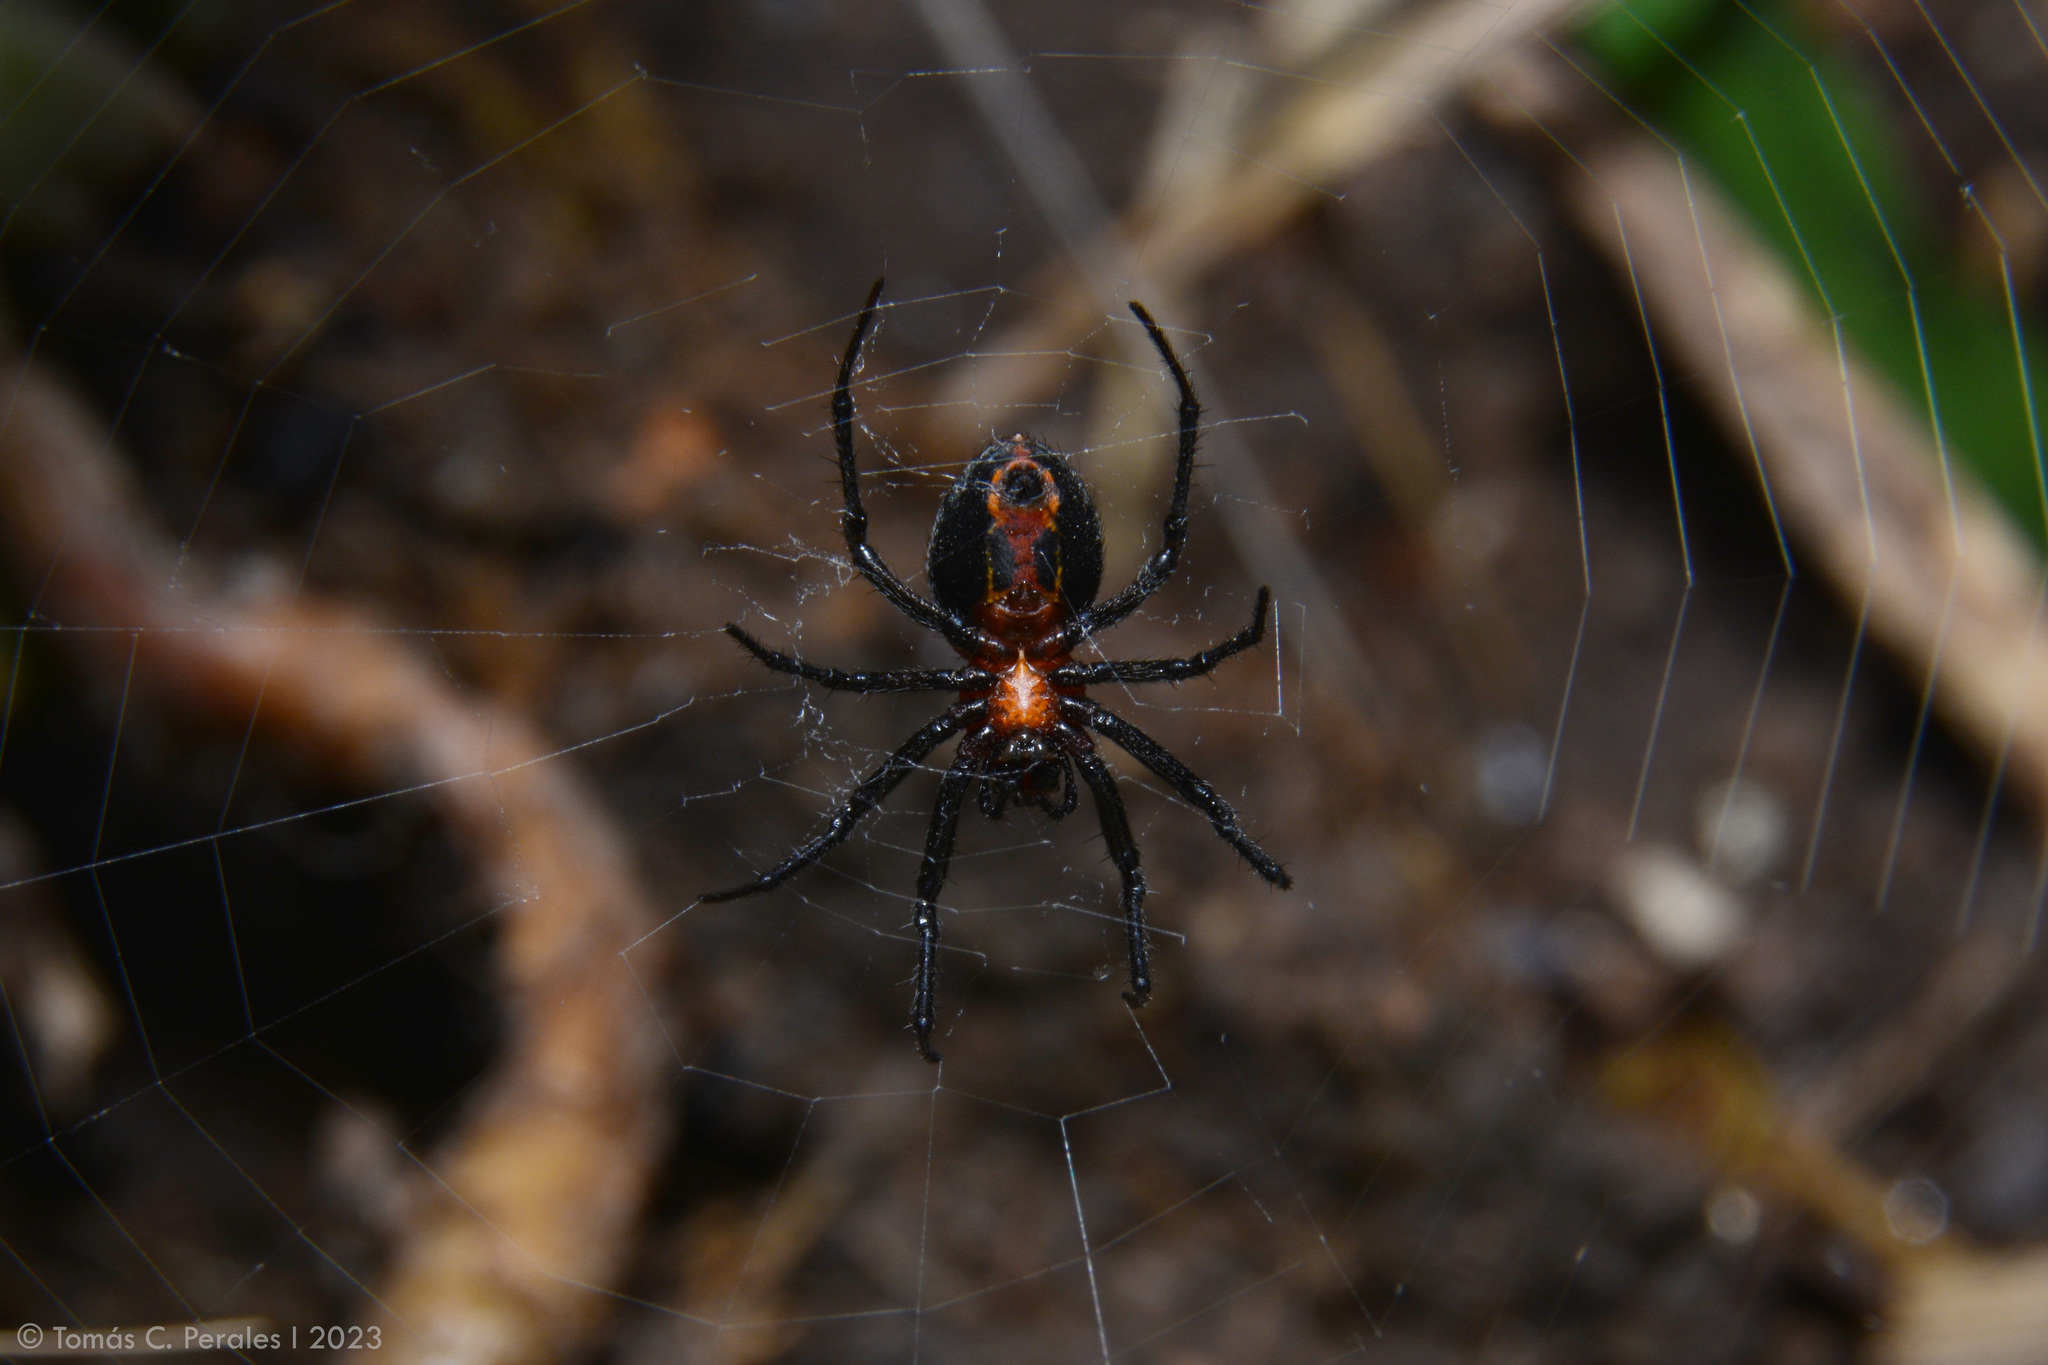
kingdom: Animalia
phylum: Arthropoda
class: Arachnida
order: Araneae
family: Araneidae
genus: Alpaida
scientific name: Alpaida carminea
